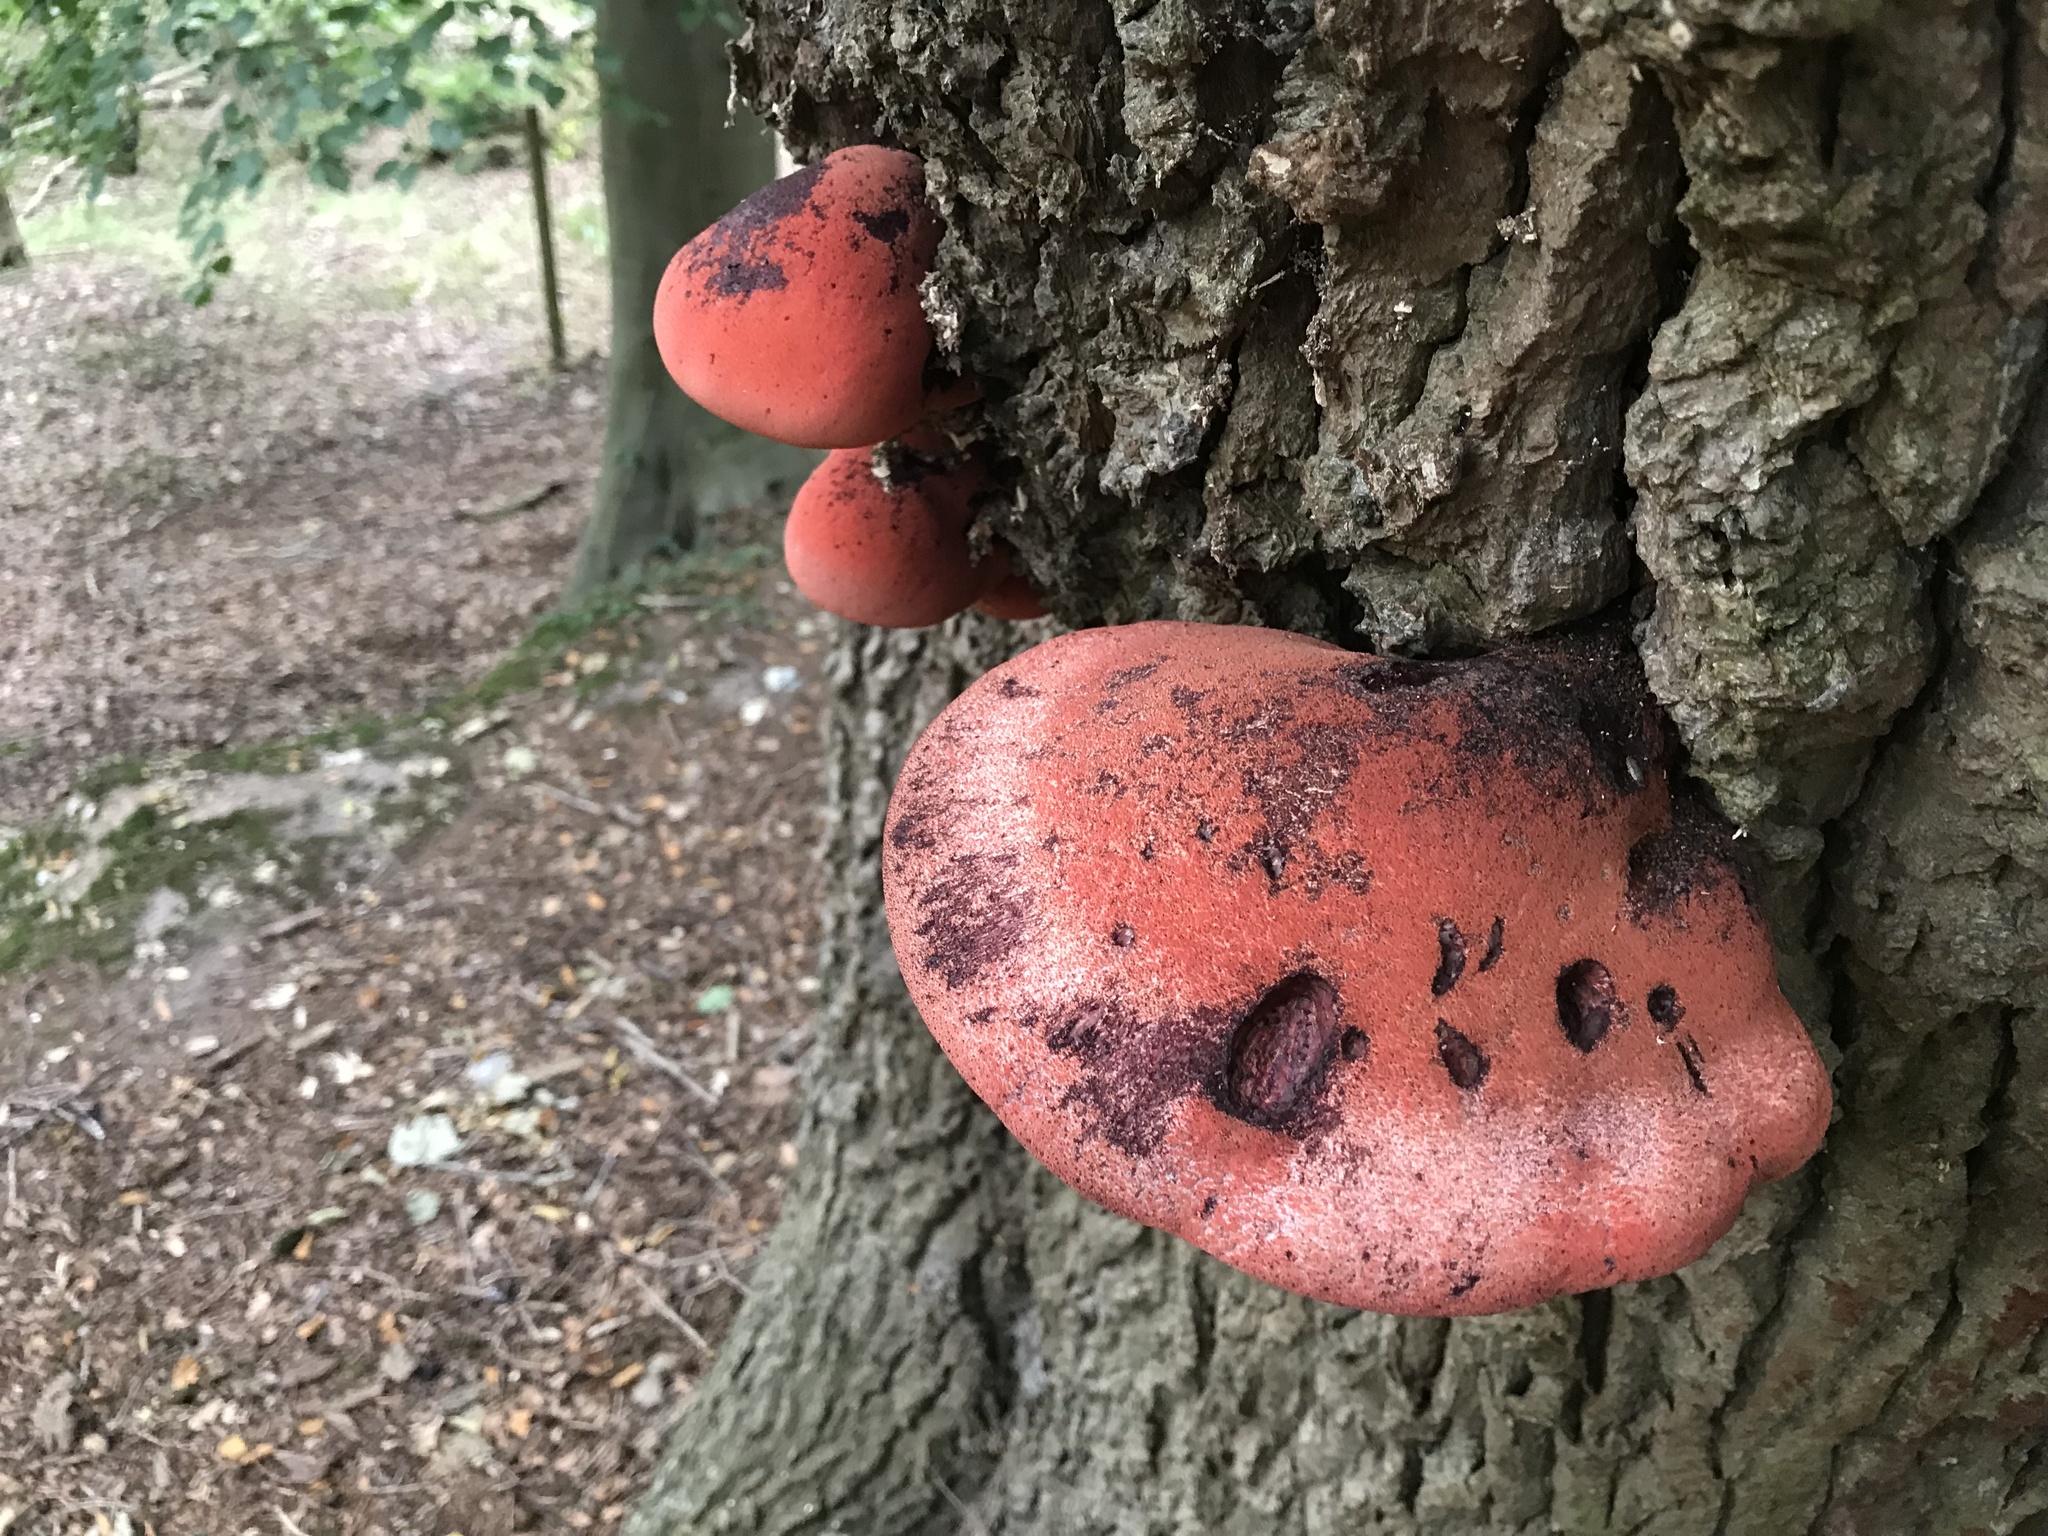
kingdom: Fungi
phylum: Basidiomycota
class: Agaricomycetes
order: Agaricales
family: Fistulinaceae
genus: Fistulina
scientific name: Fistulina hepatica
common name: Beef-steak fungus
